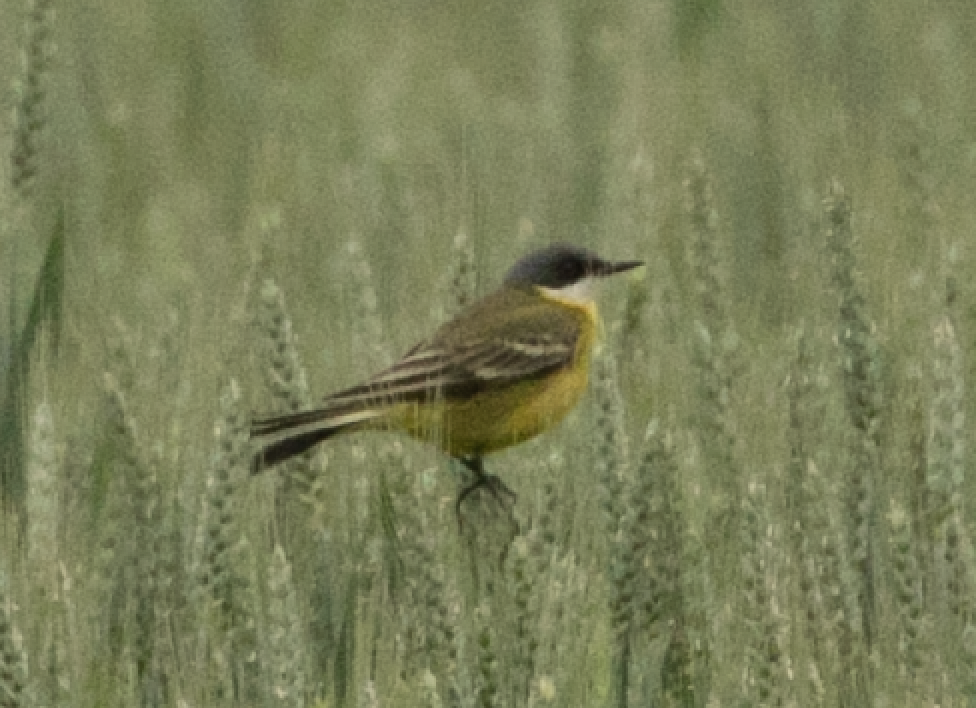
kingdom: Animalia
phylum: Chordata
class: Aves
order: Passeriformes
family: Motacillidae
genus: Motacilla
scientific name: Motacilla flava
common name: Western yellow wagtail
